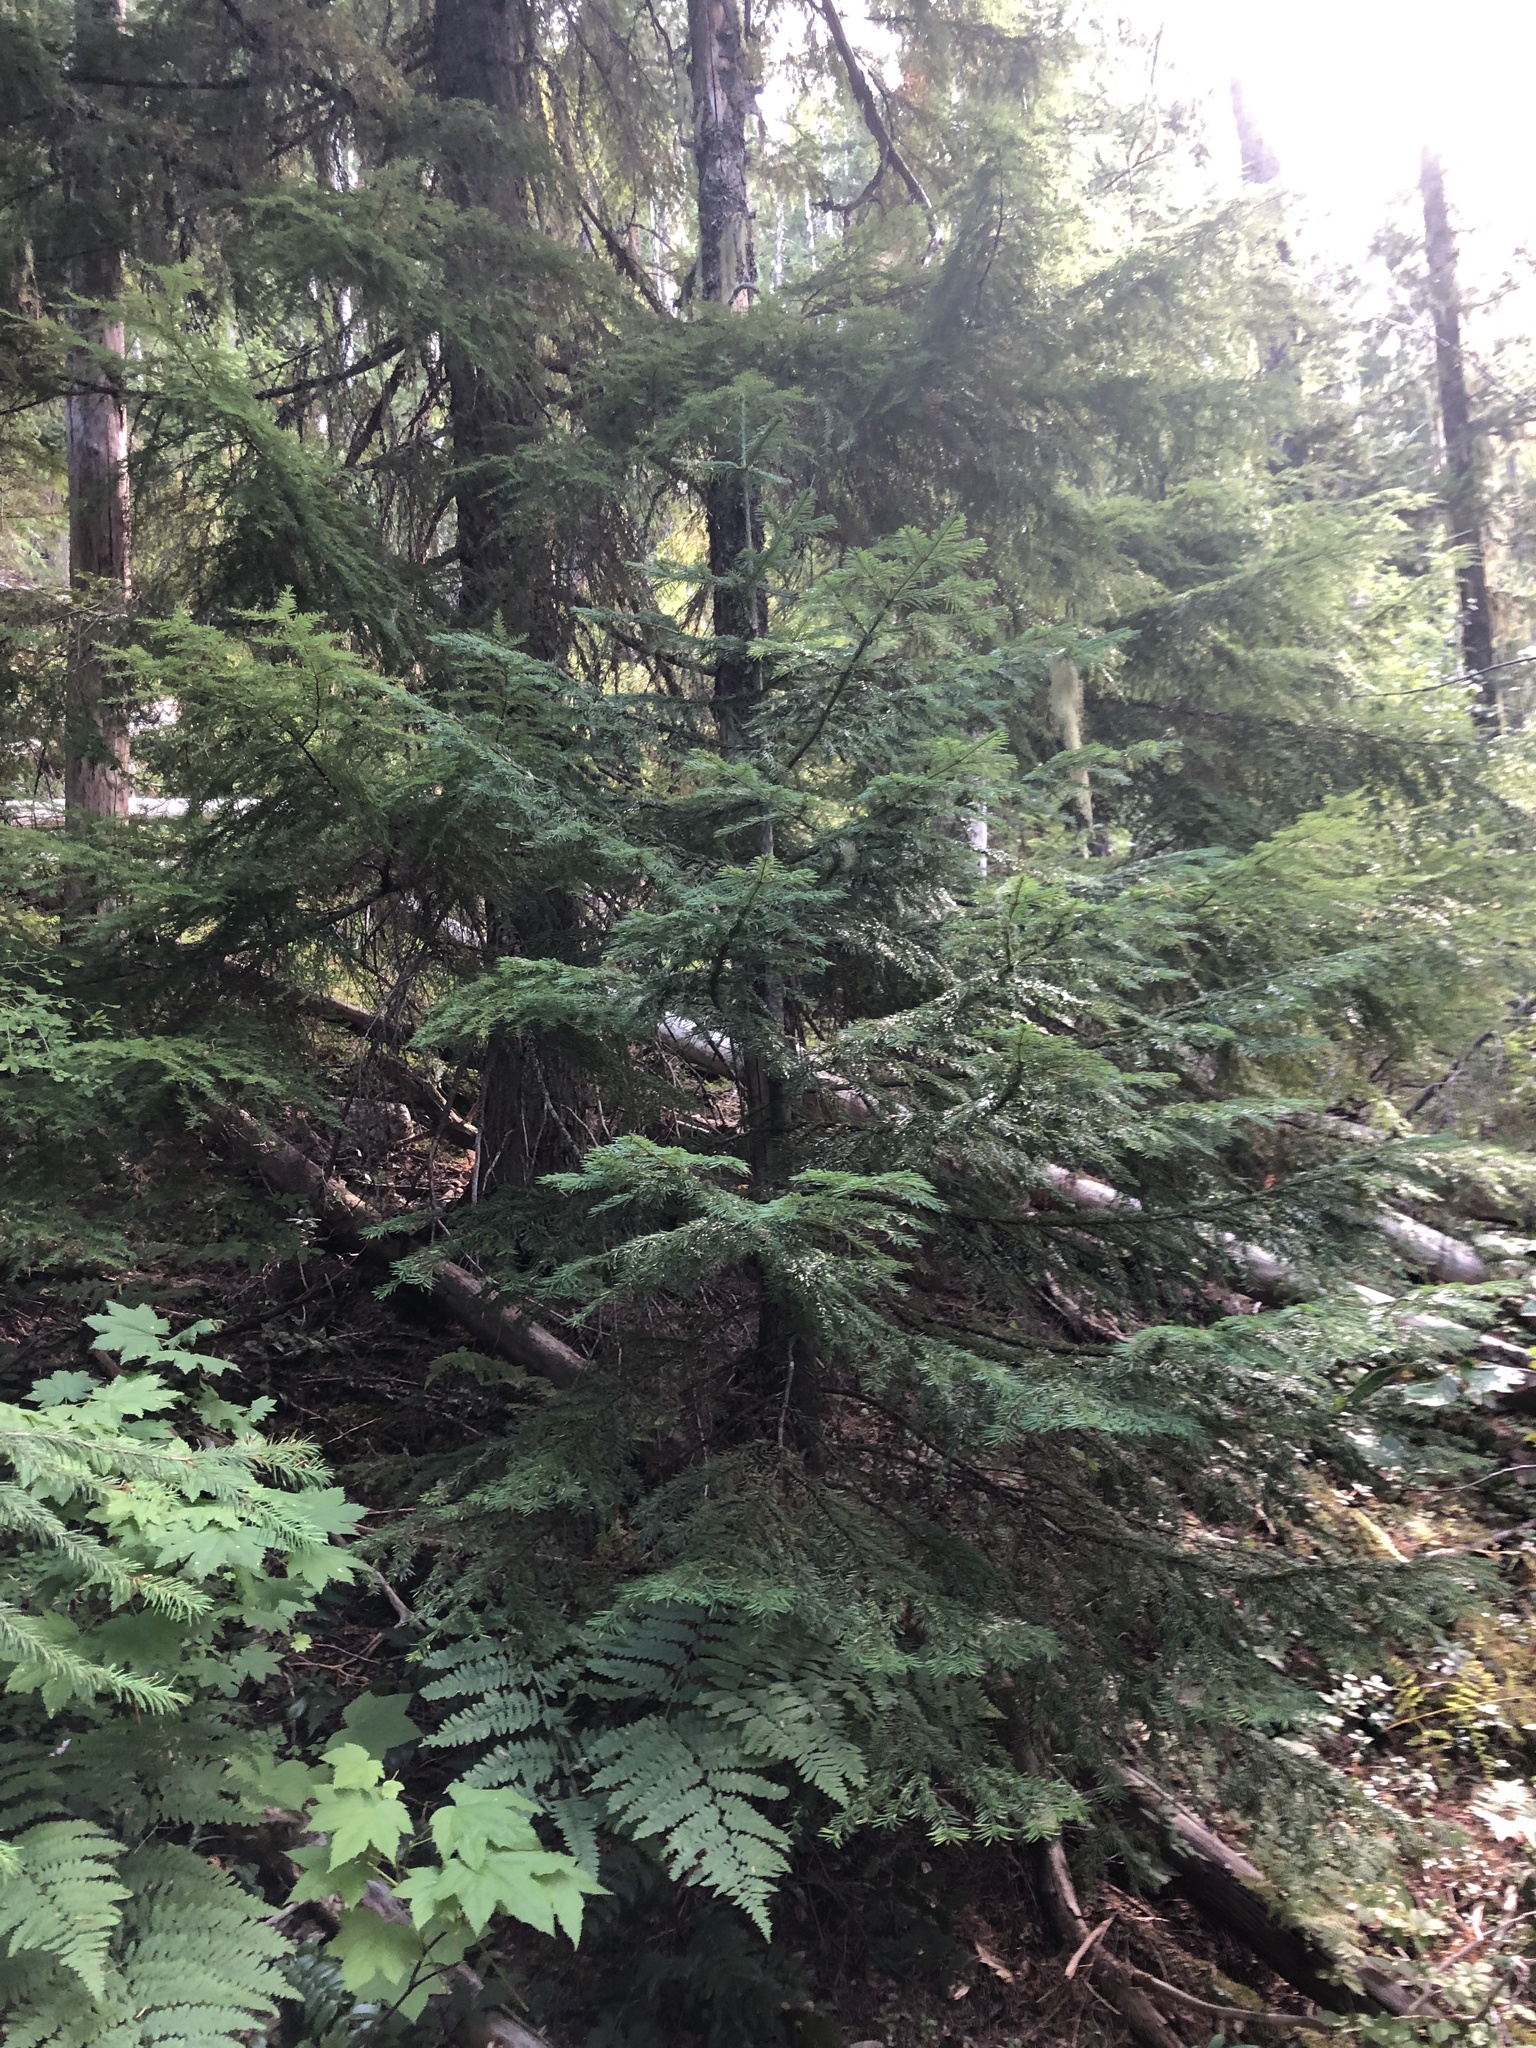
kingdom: Plantae
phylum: Tracheophyta
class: Pinopsida
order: Pinales
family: Pinaceae
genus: Abies
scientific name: Abies amabilis
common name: Pacific silver fir
